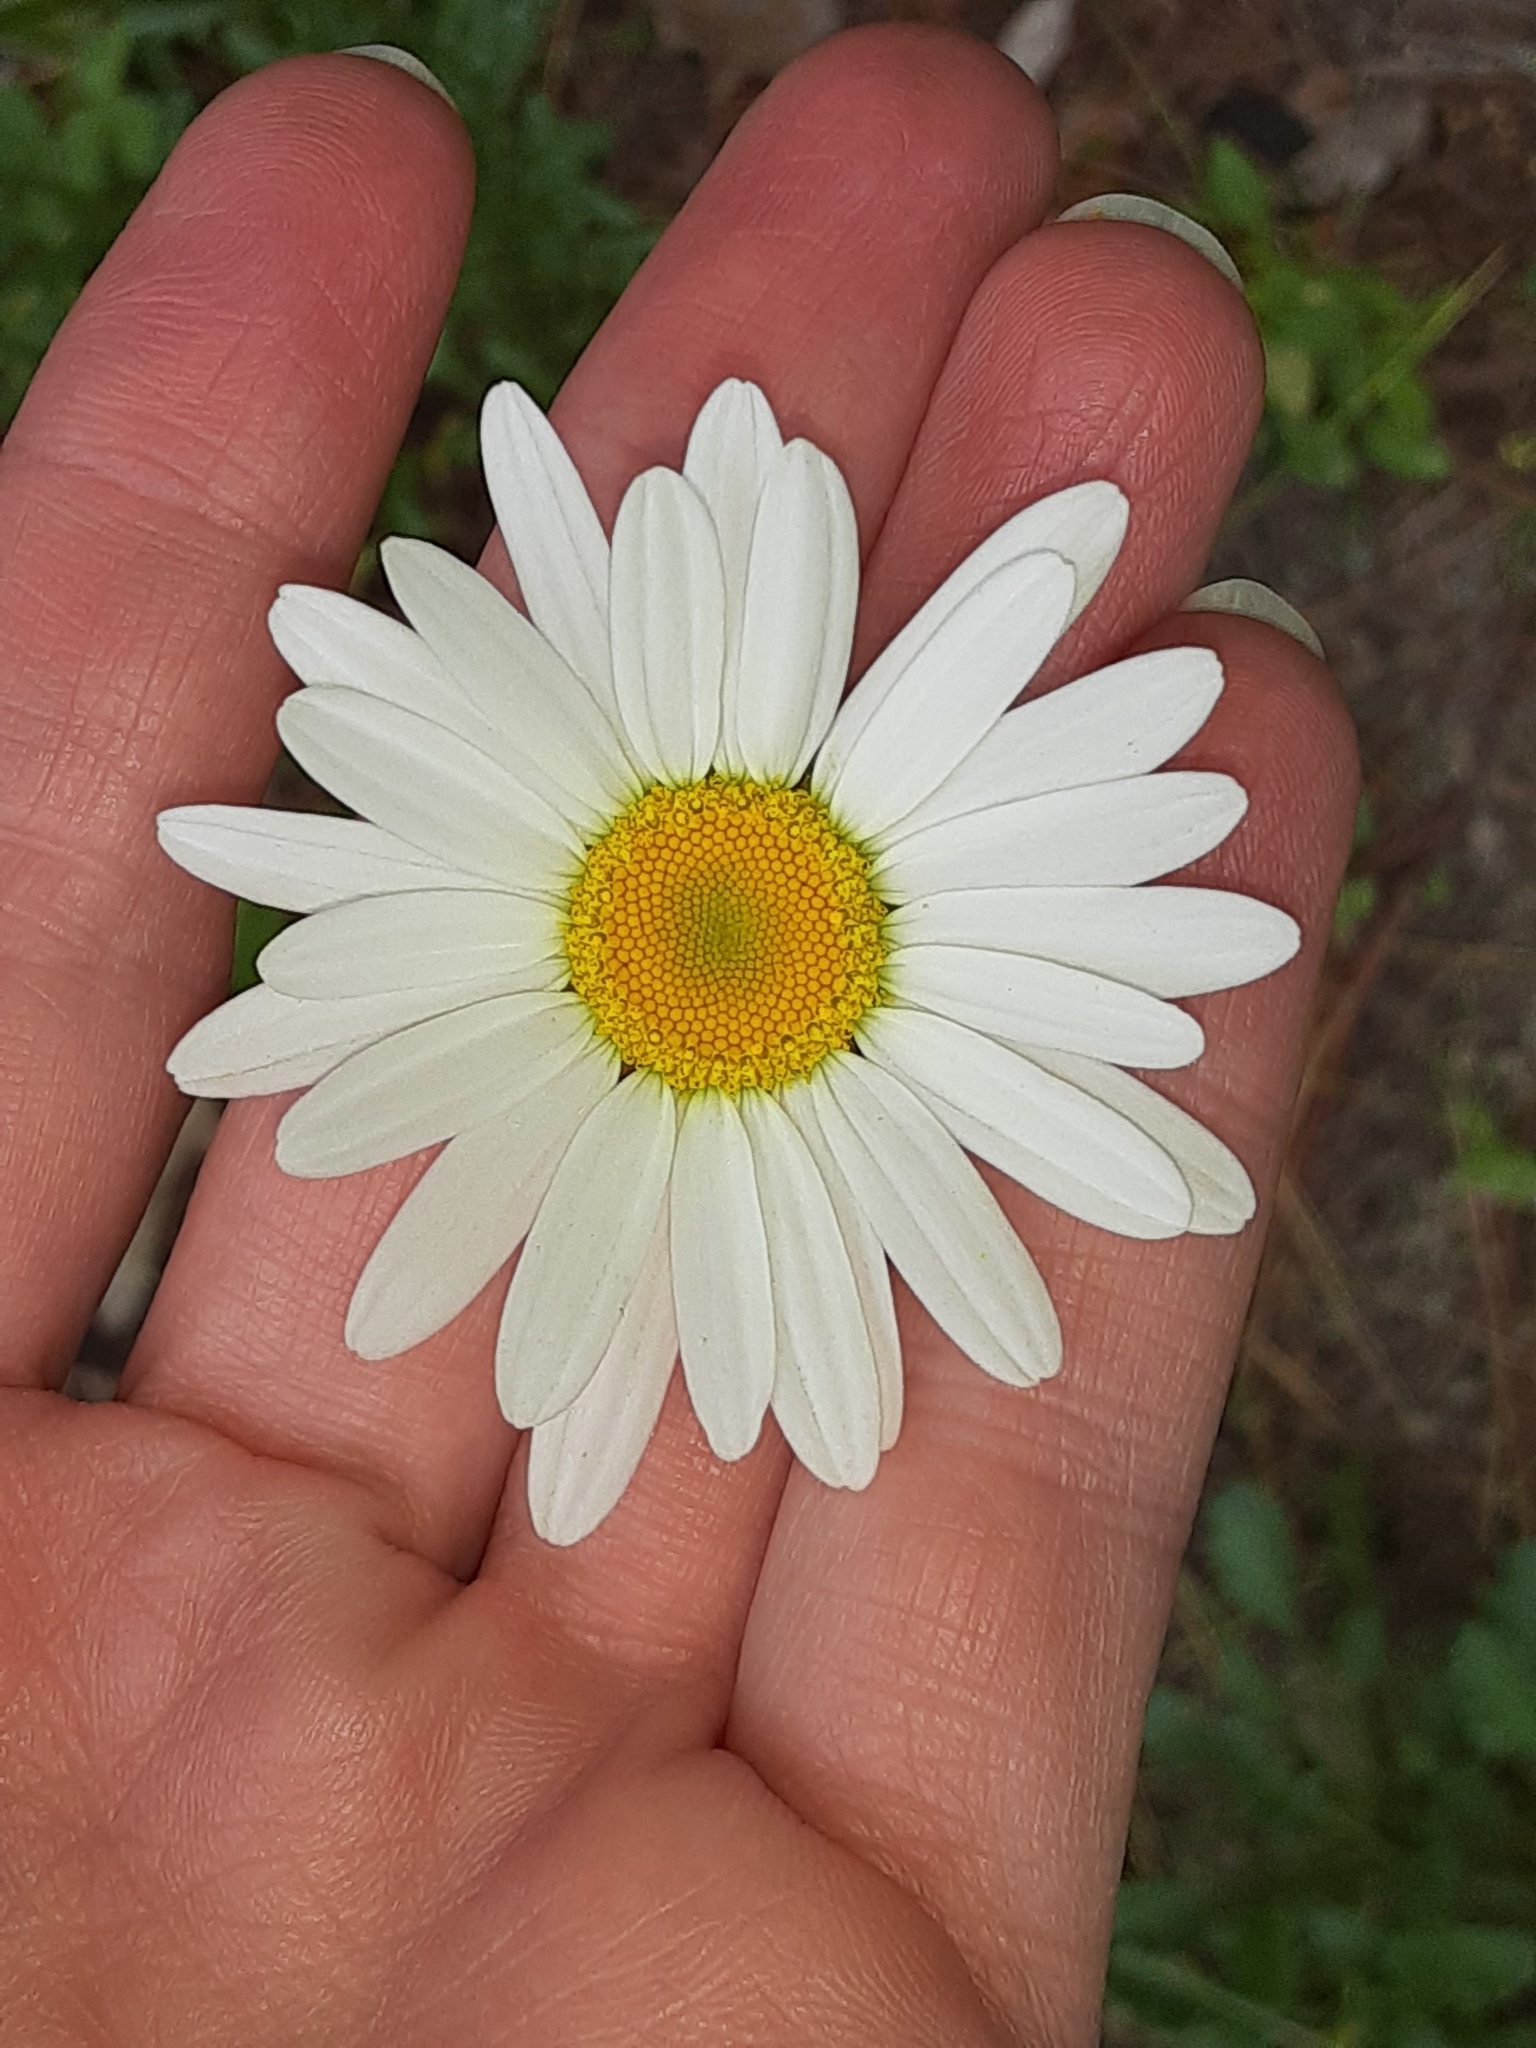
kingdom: Plantae
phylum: Tracheophyta
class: Magnoliopsida
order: Asterales
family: Asteraceae
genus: Leucanthemum
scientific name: Leucanthemum vulgare
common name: Oxeye daisy
